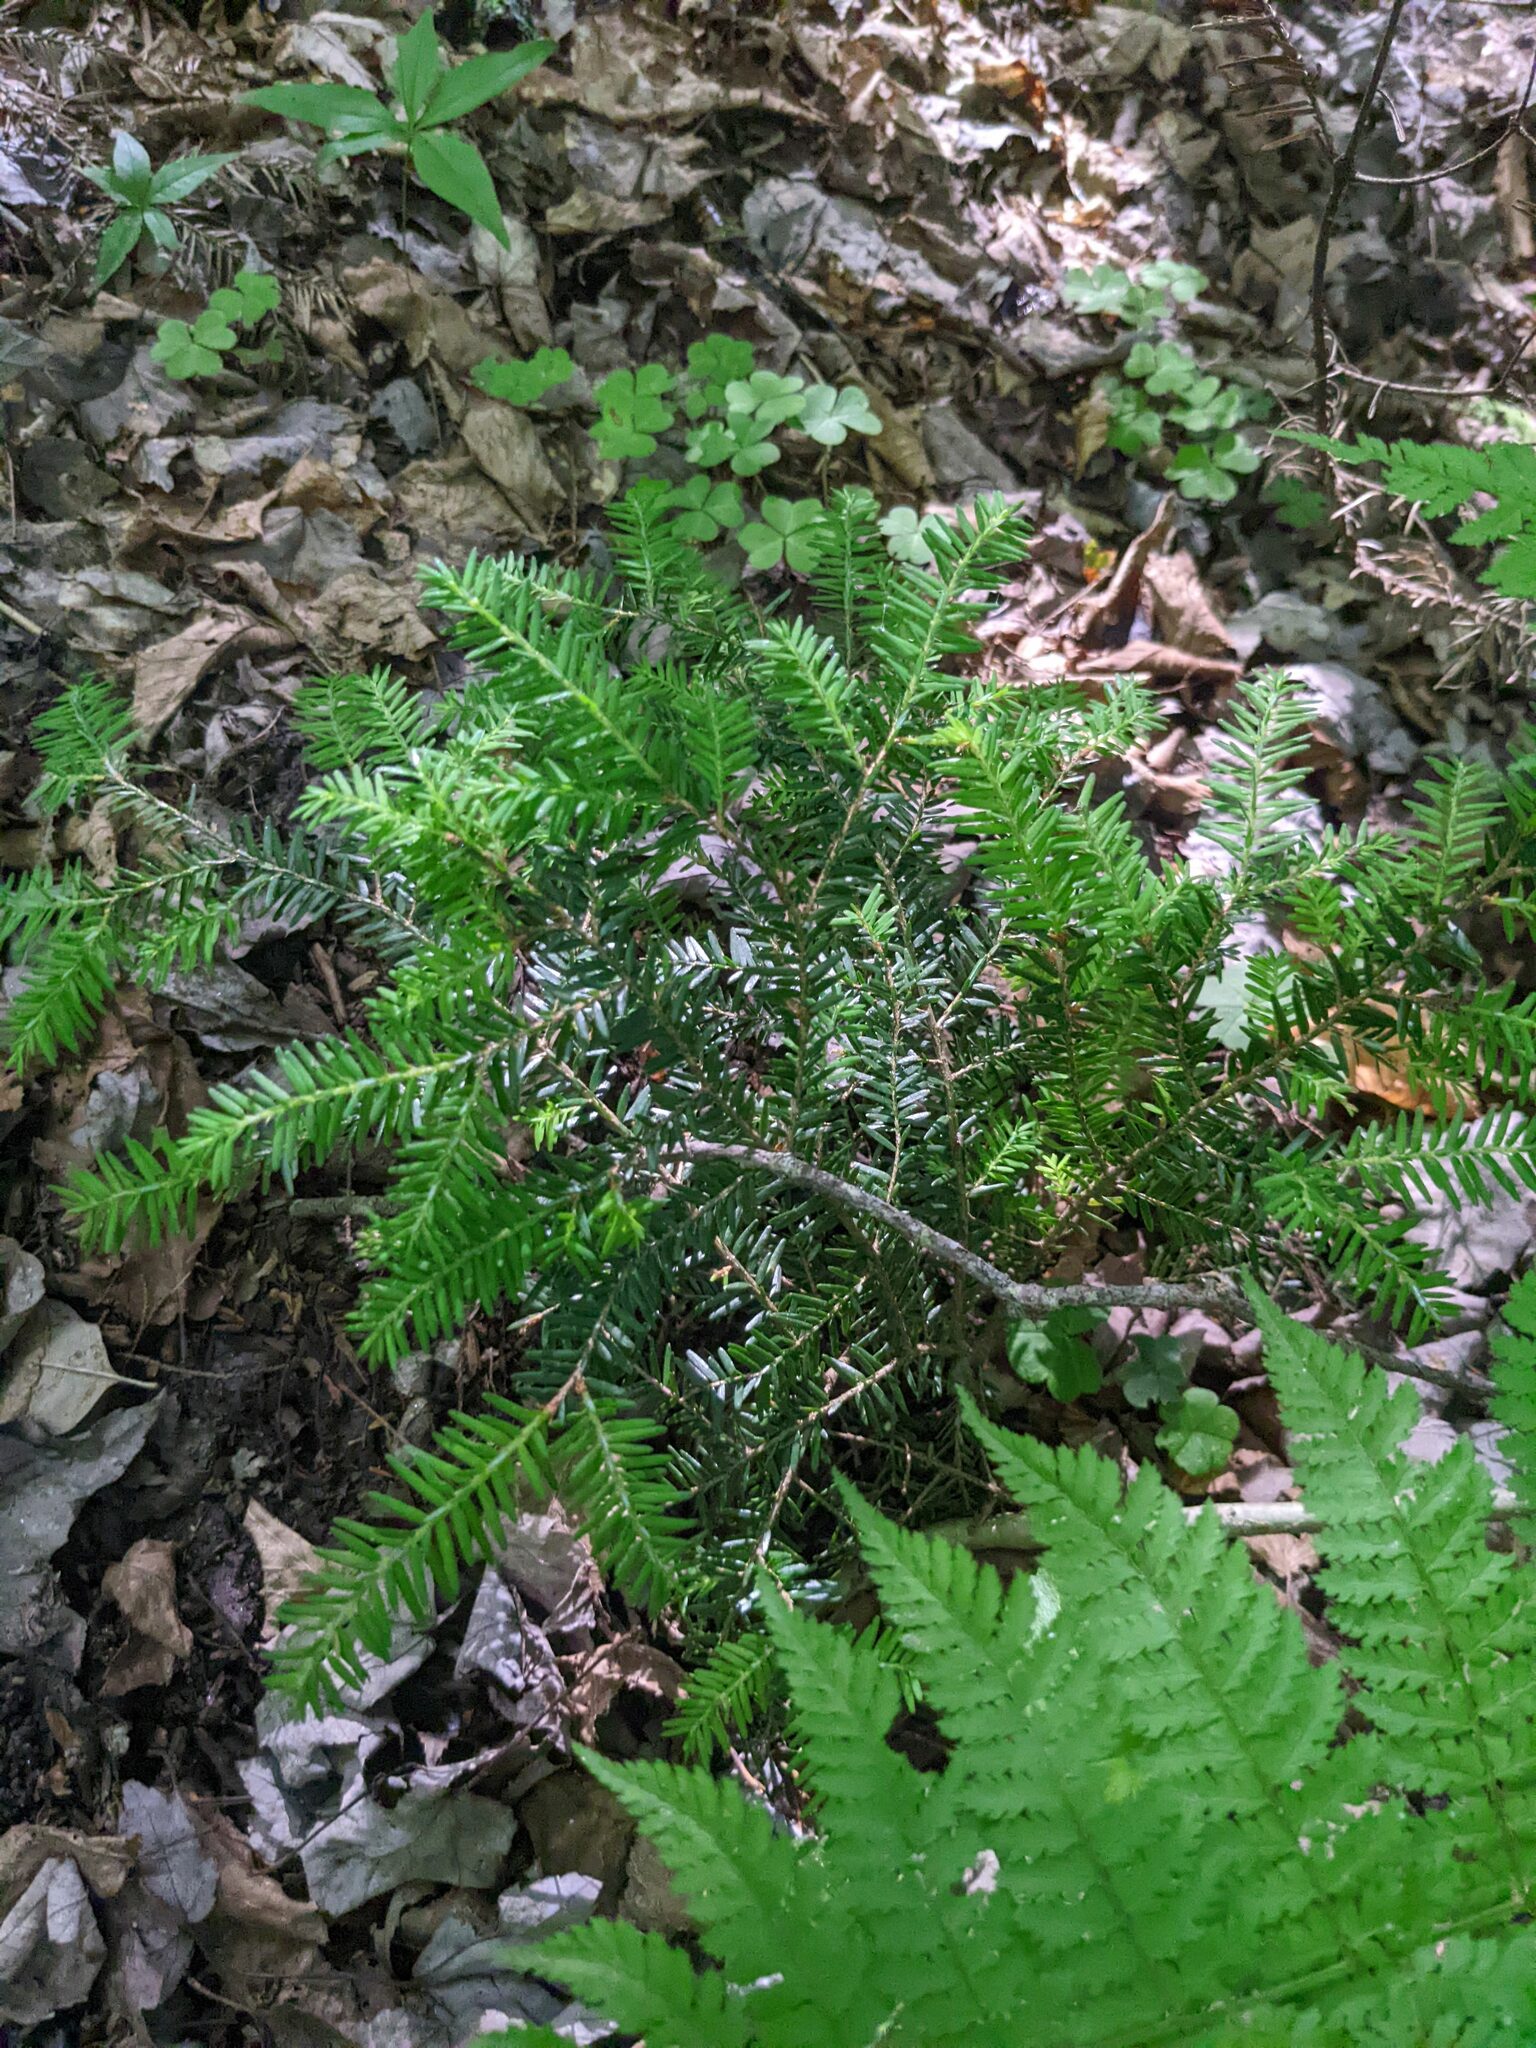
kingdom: Plantae
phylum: Tracheophyta
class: Pinopsida
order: Pinales
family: Pinaceae
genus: Tsuga
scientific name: Tsuga canadensis
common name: Eastern hemlock
